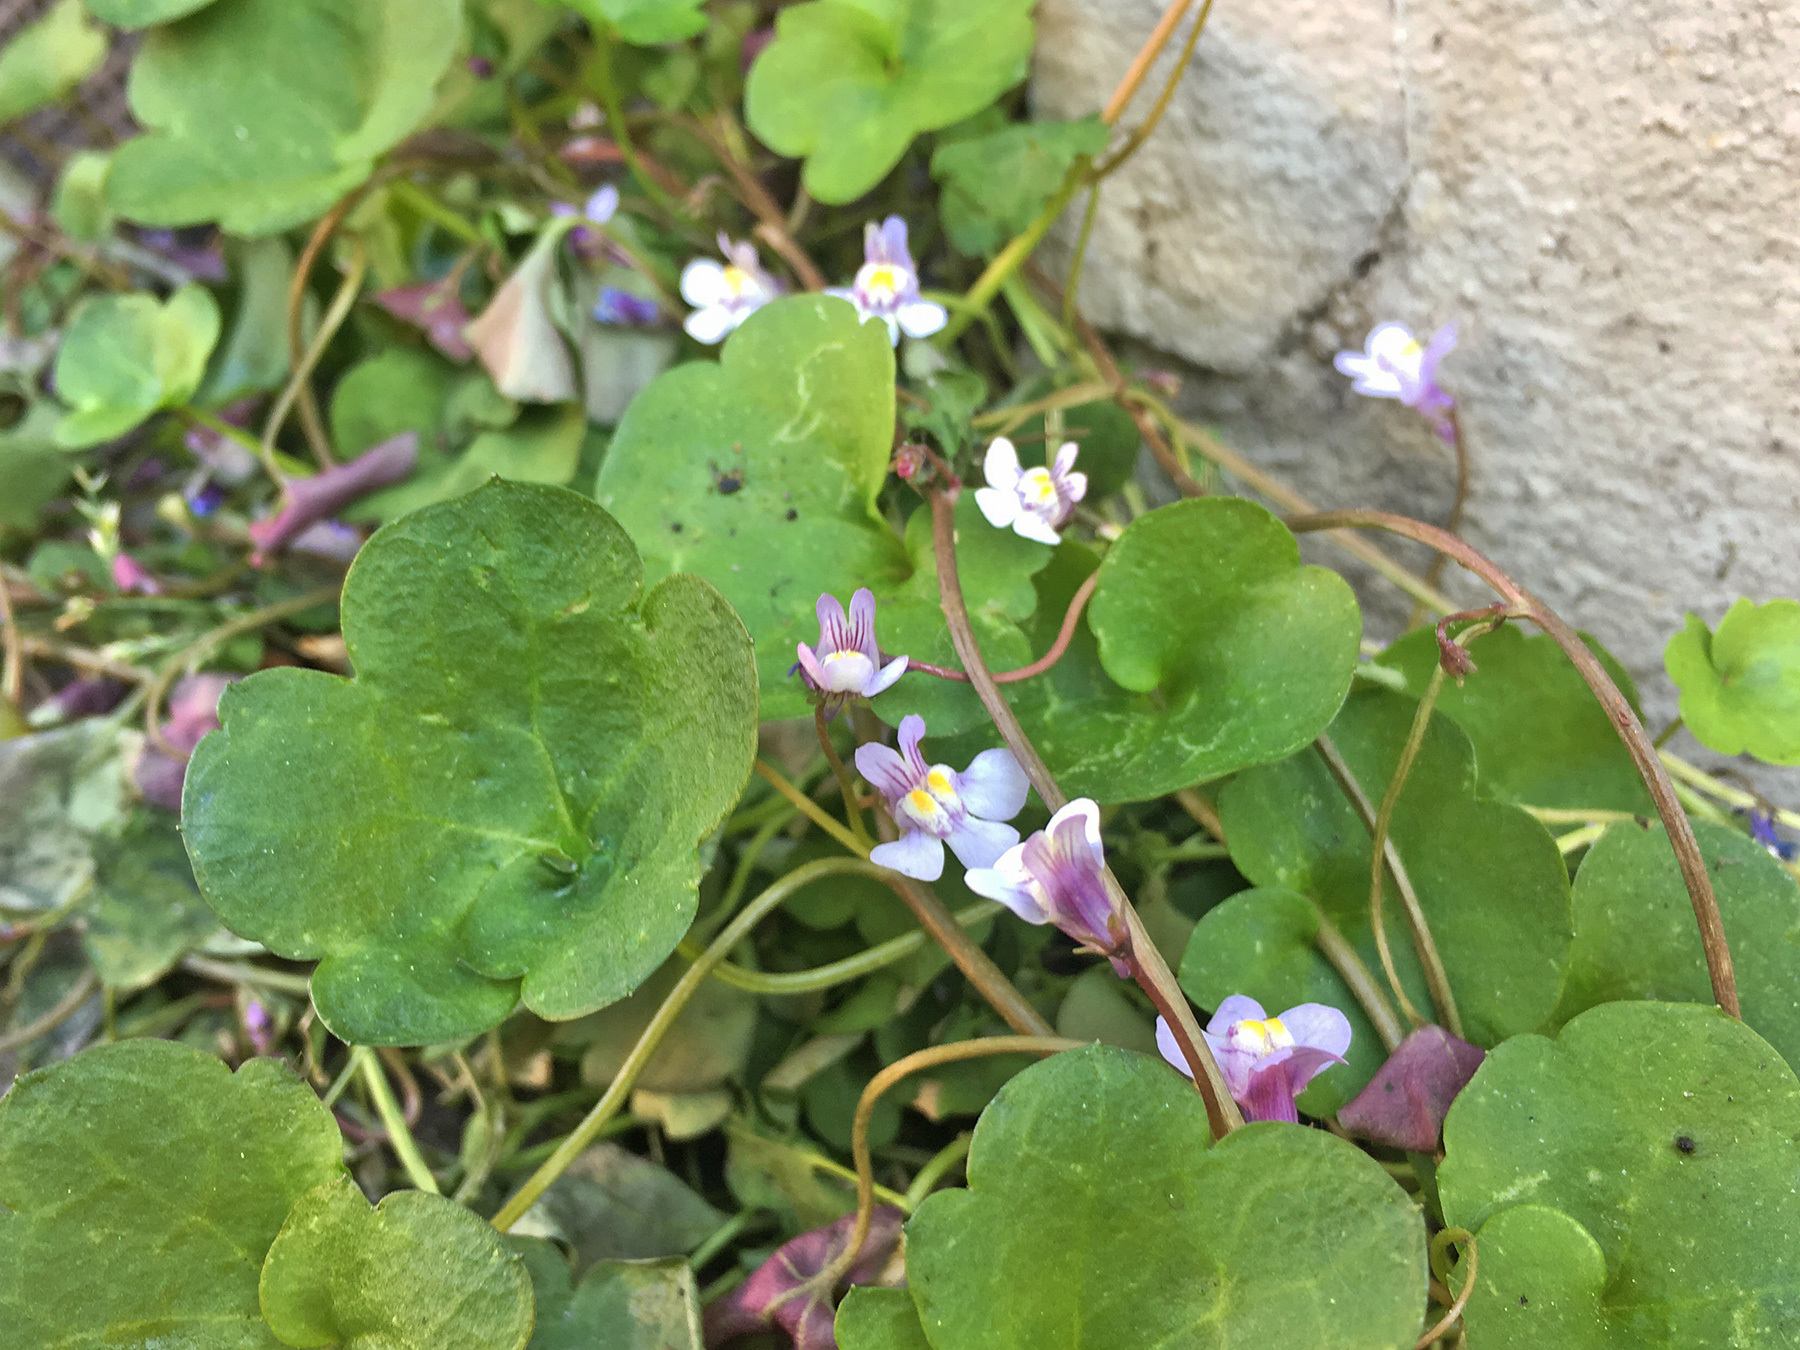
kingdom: Plantae
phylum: Tracheophyta
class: Magnoliopsida
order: Lamiales
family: Plantaginaceae
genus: Cymbalaria
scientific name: Cymbalaria muralis
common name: Ivy-leaved toadflax
